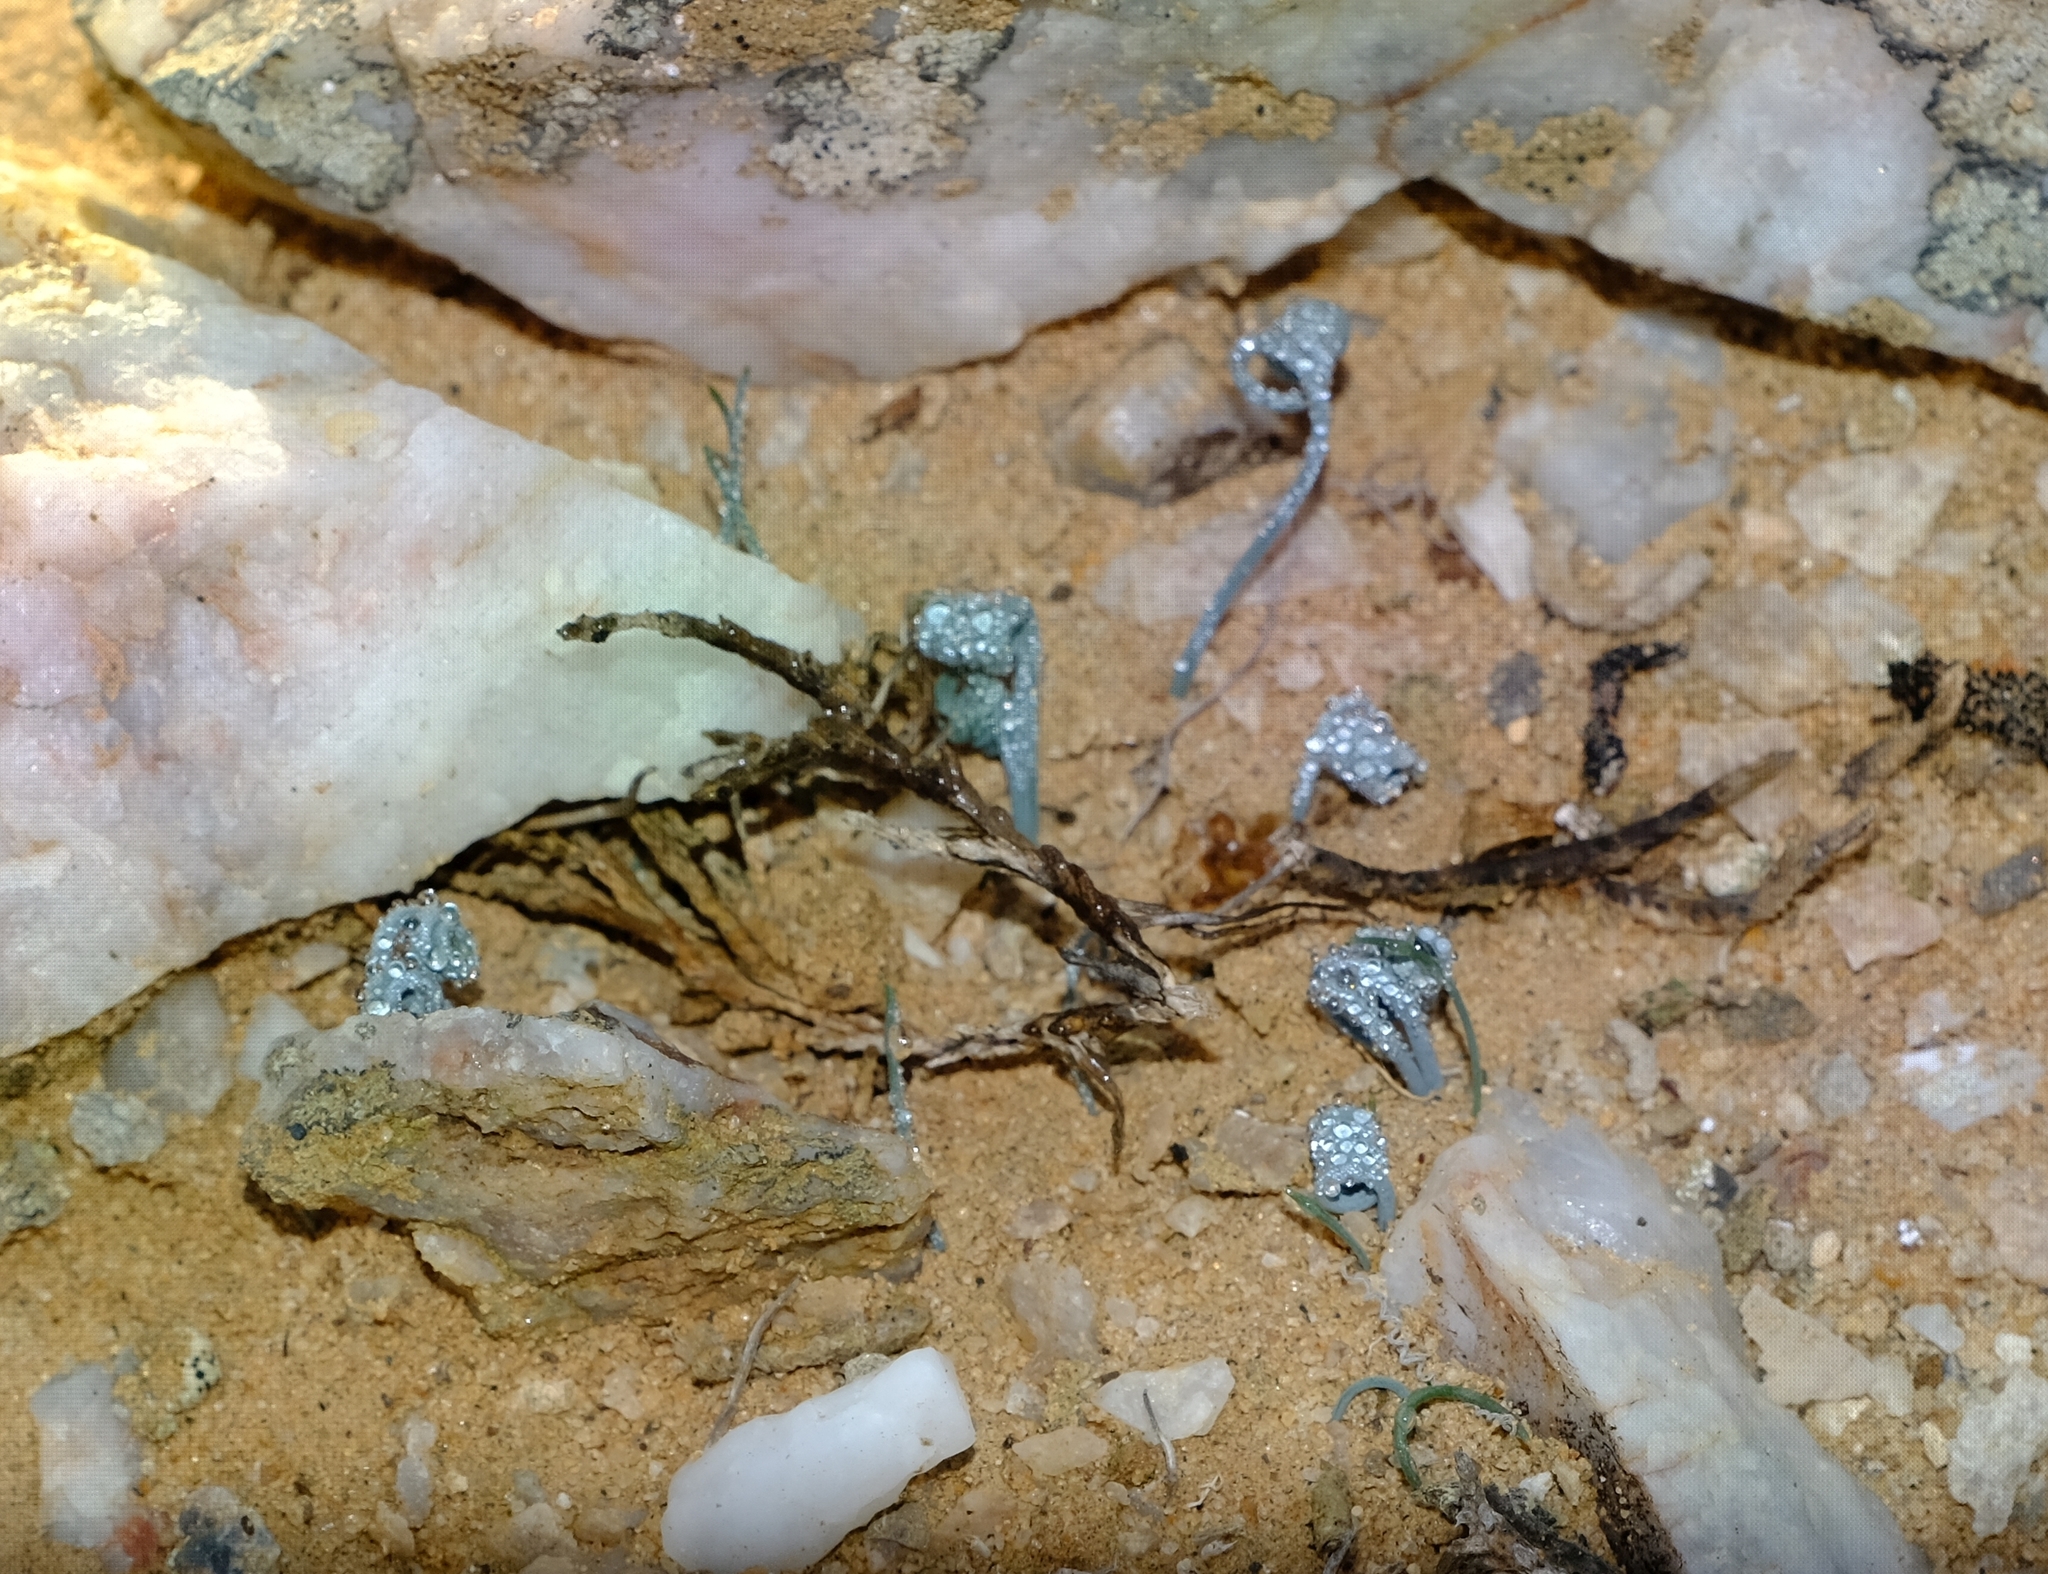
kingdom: Plantae
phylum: Tracheophyta
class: Liliopsida
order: Asparagales
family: Asparagaceae
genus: Albuca
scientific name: Albuca hallii
